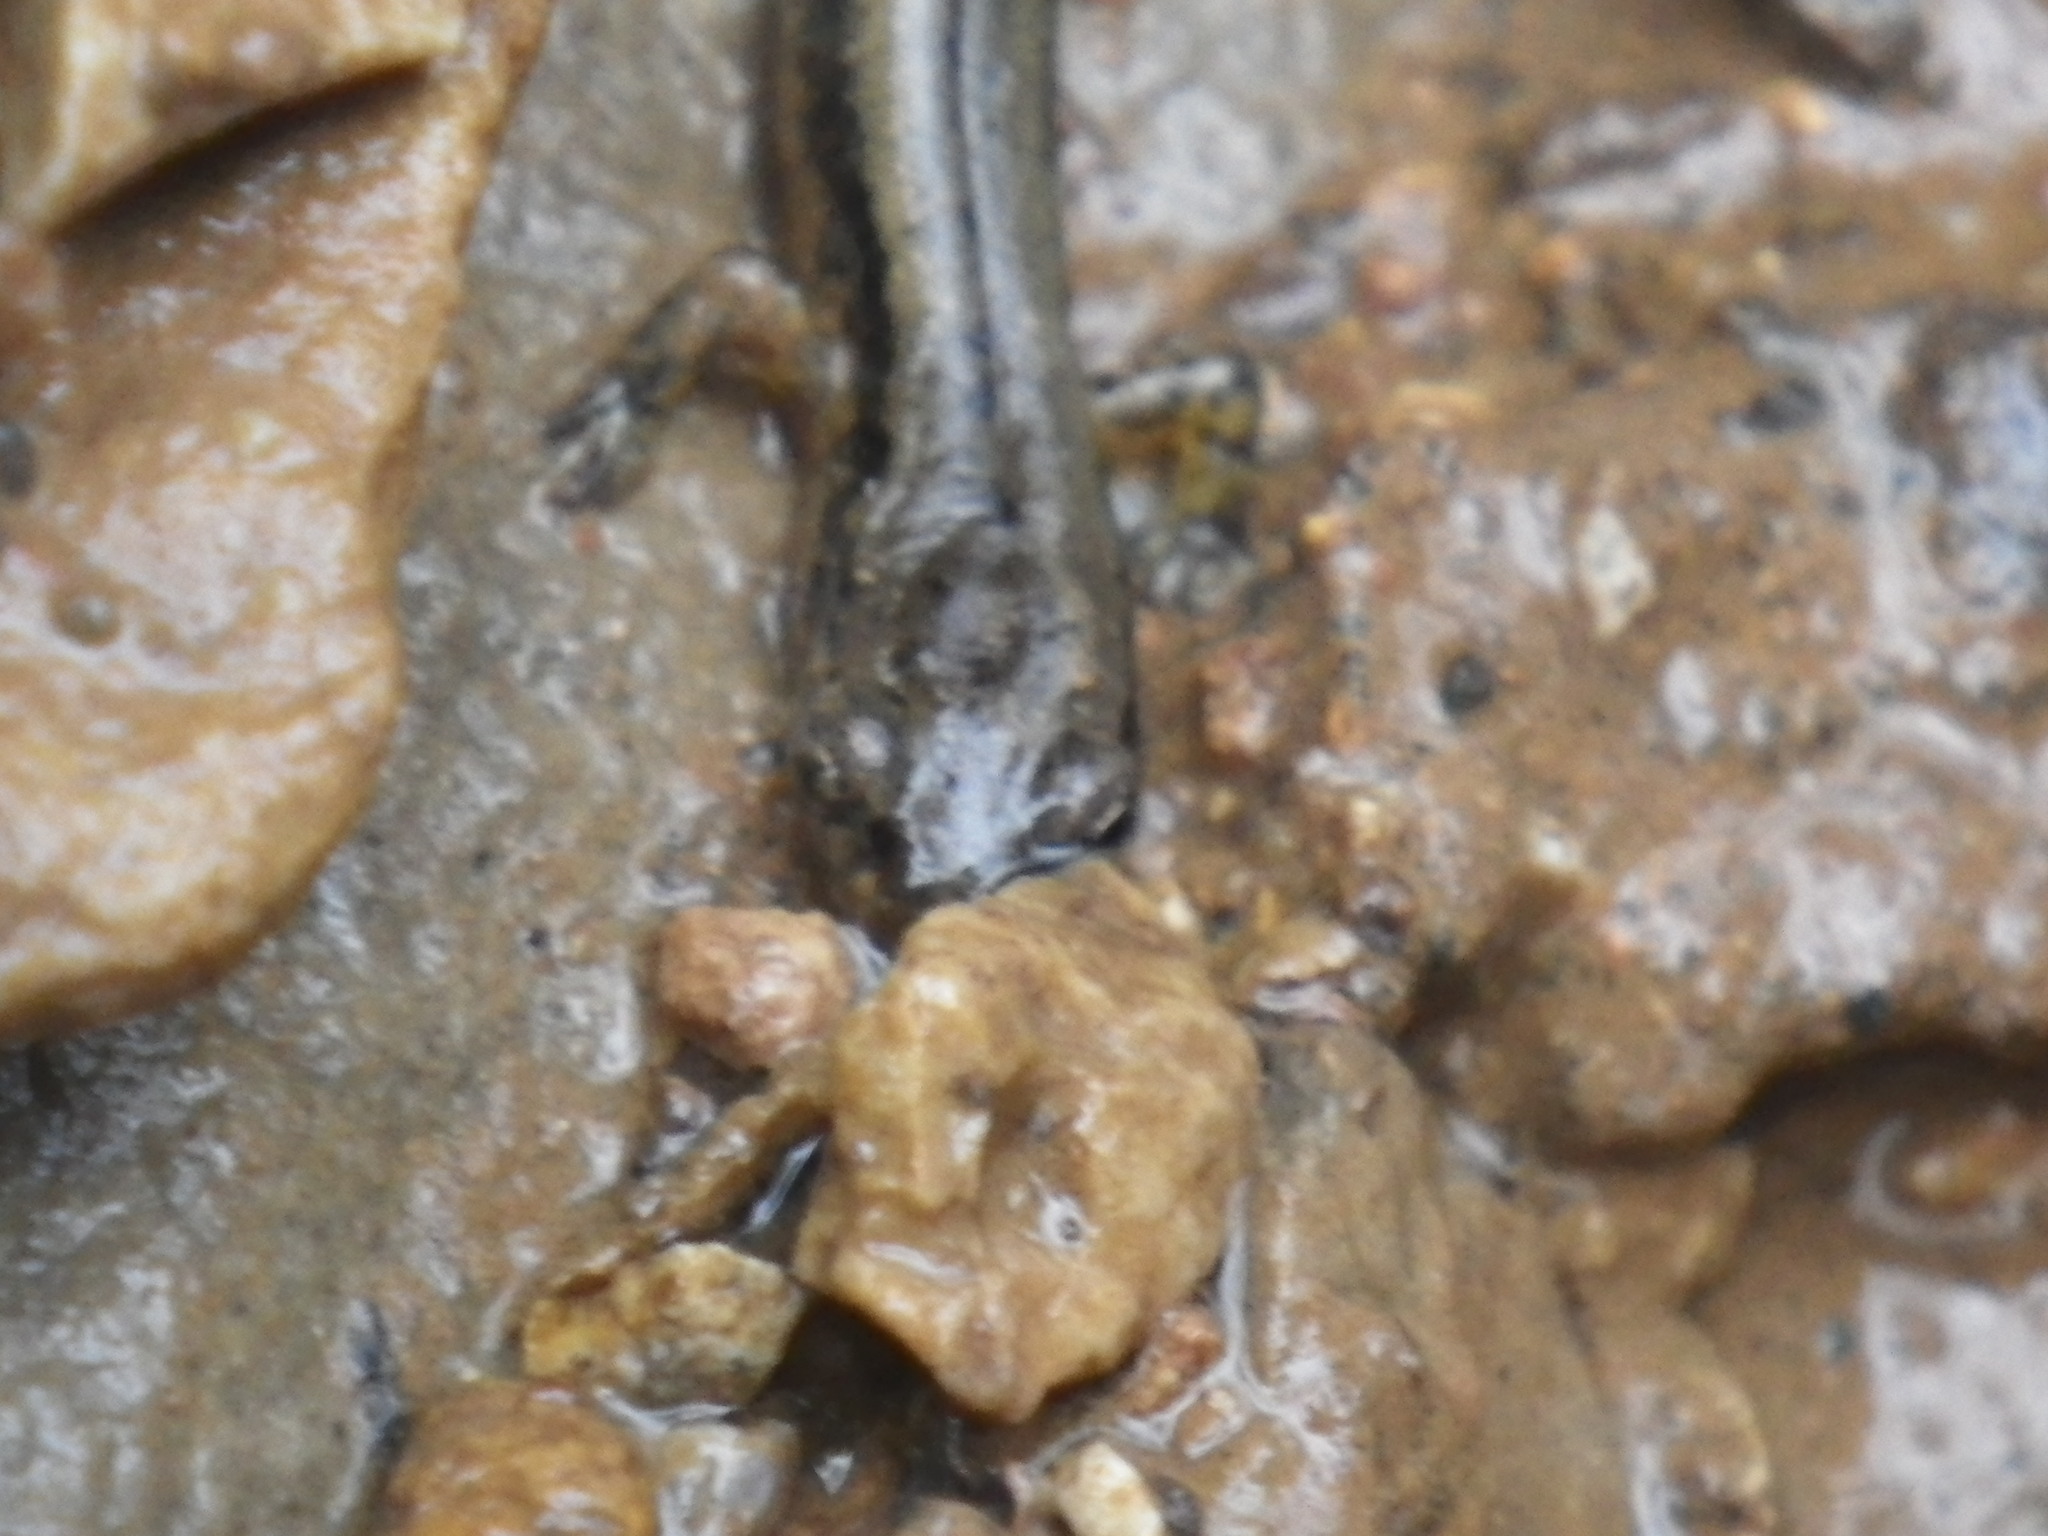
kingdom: Animalia
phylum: Chordata
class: Amphibia
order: Caudata
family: Plethodontidae
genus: Eurycea
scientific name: Eurycea cirrigera
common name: Southern two-lined salamander
